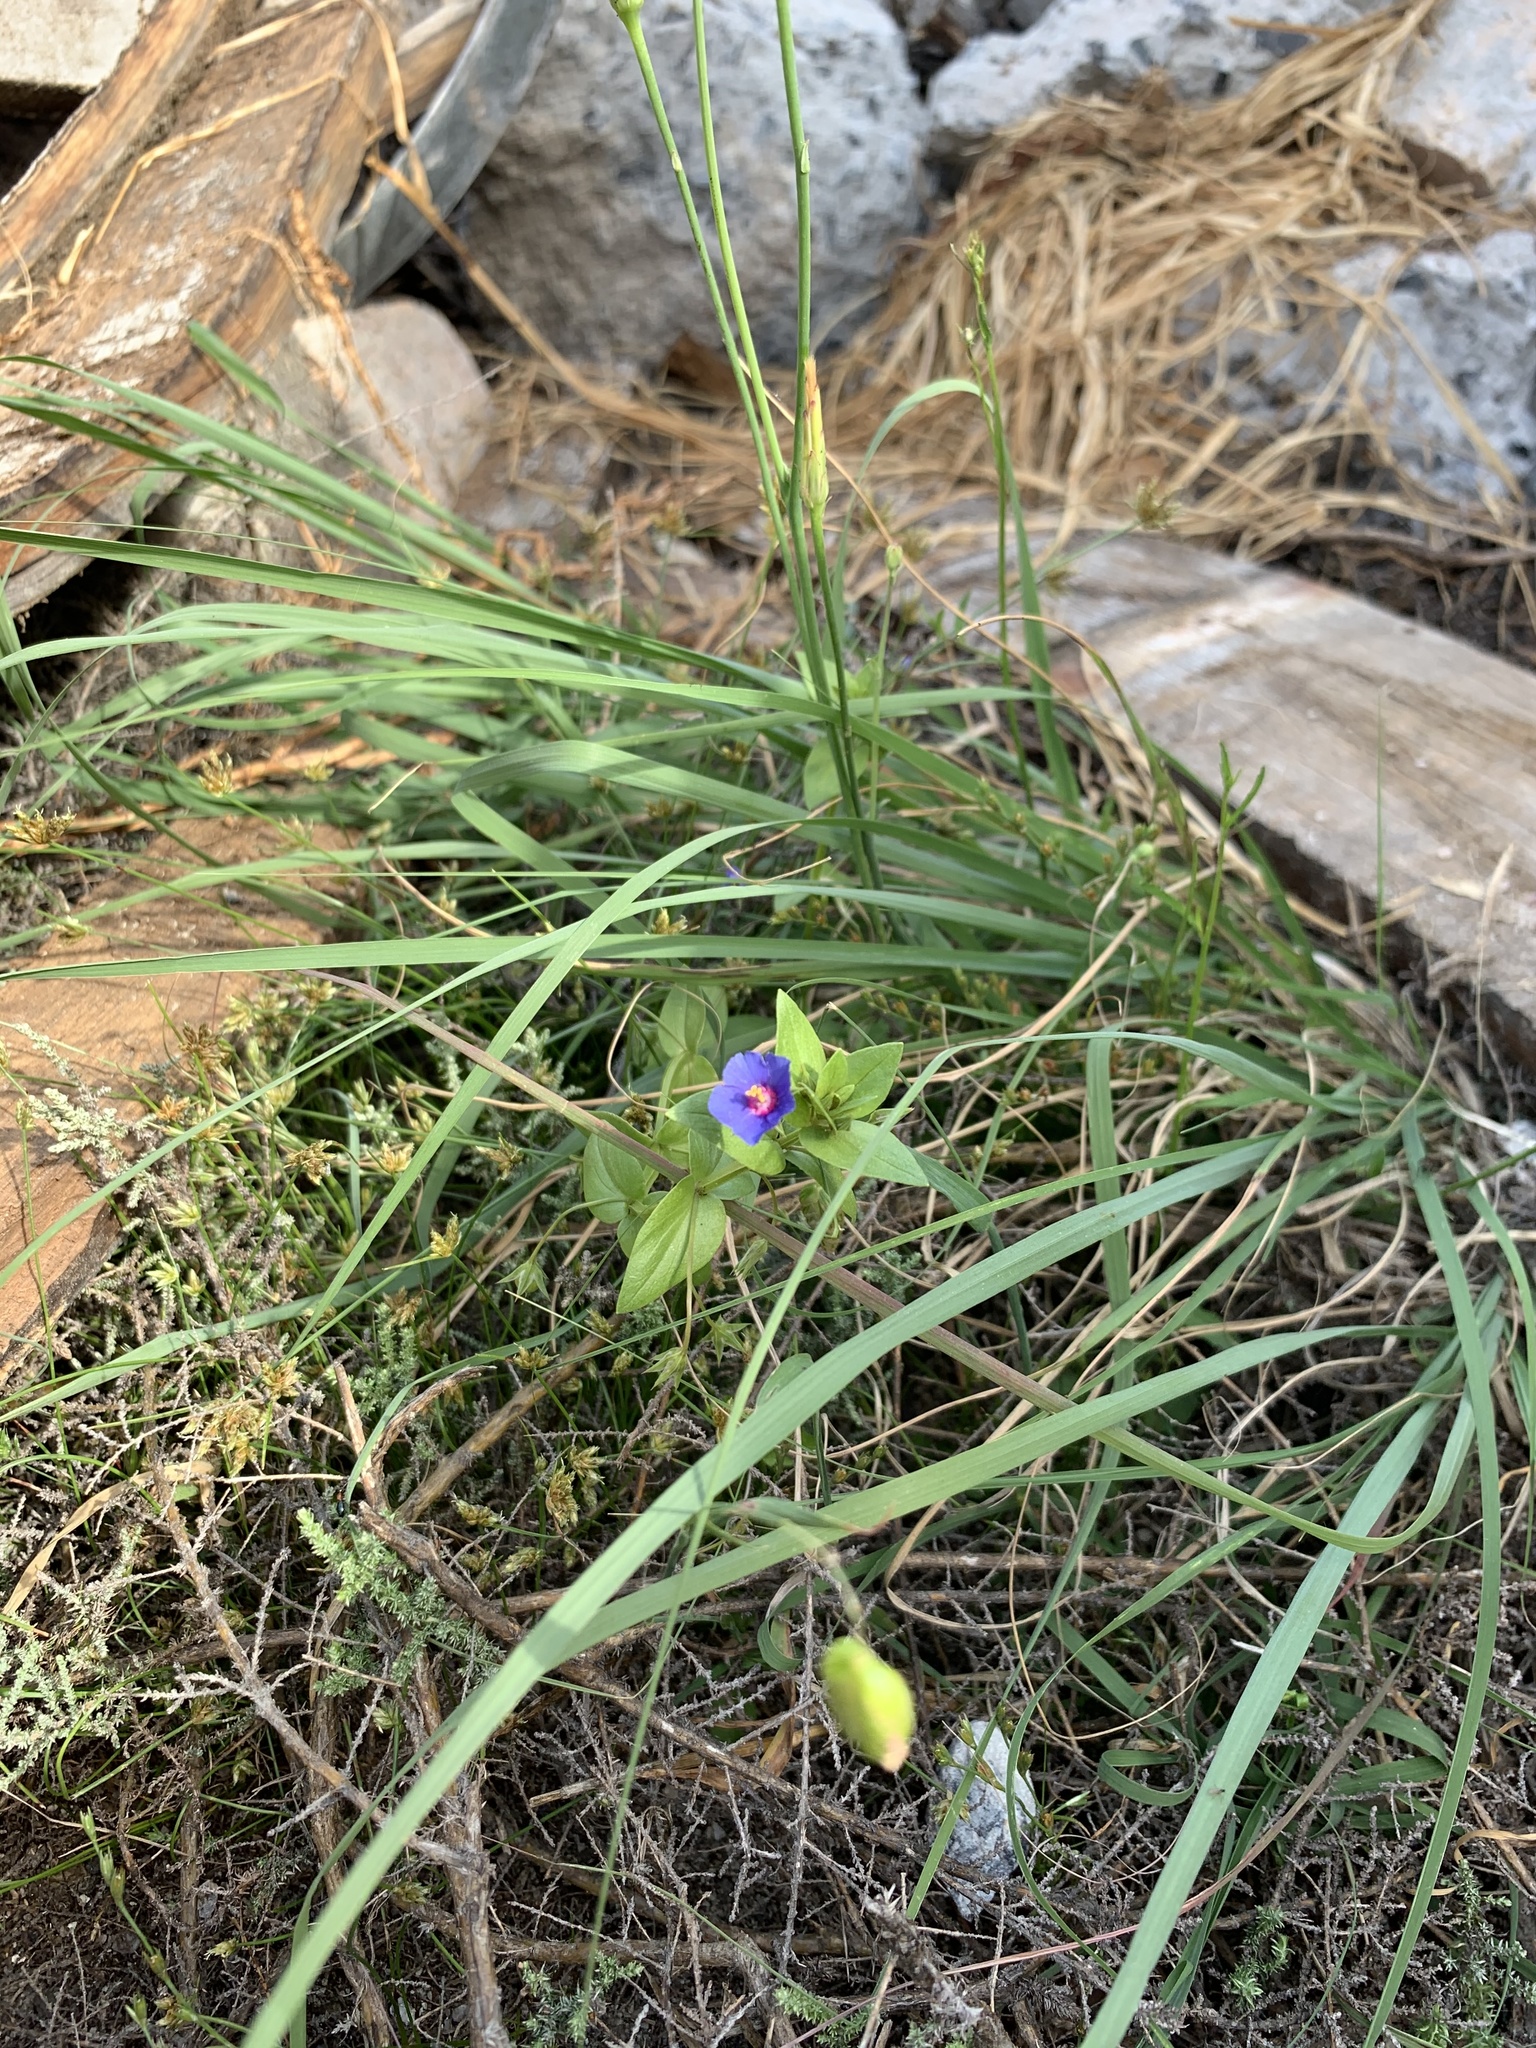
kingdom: Plantae
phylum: Tracheophyta
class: Magnoliopsida
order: Ericales
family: Primulaceae
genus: Lysimachia
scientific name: Lysimachia loeflingii
